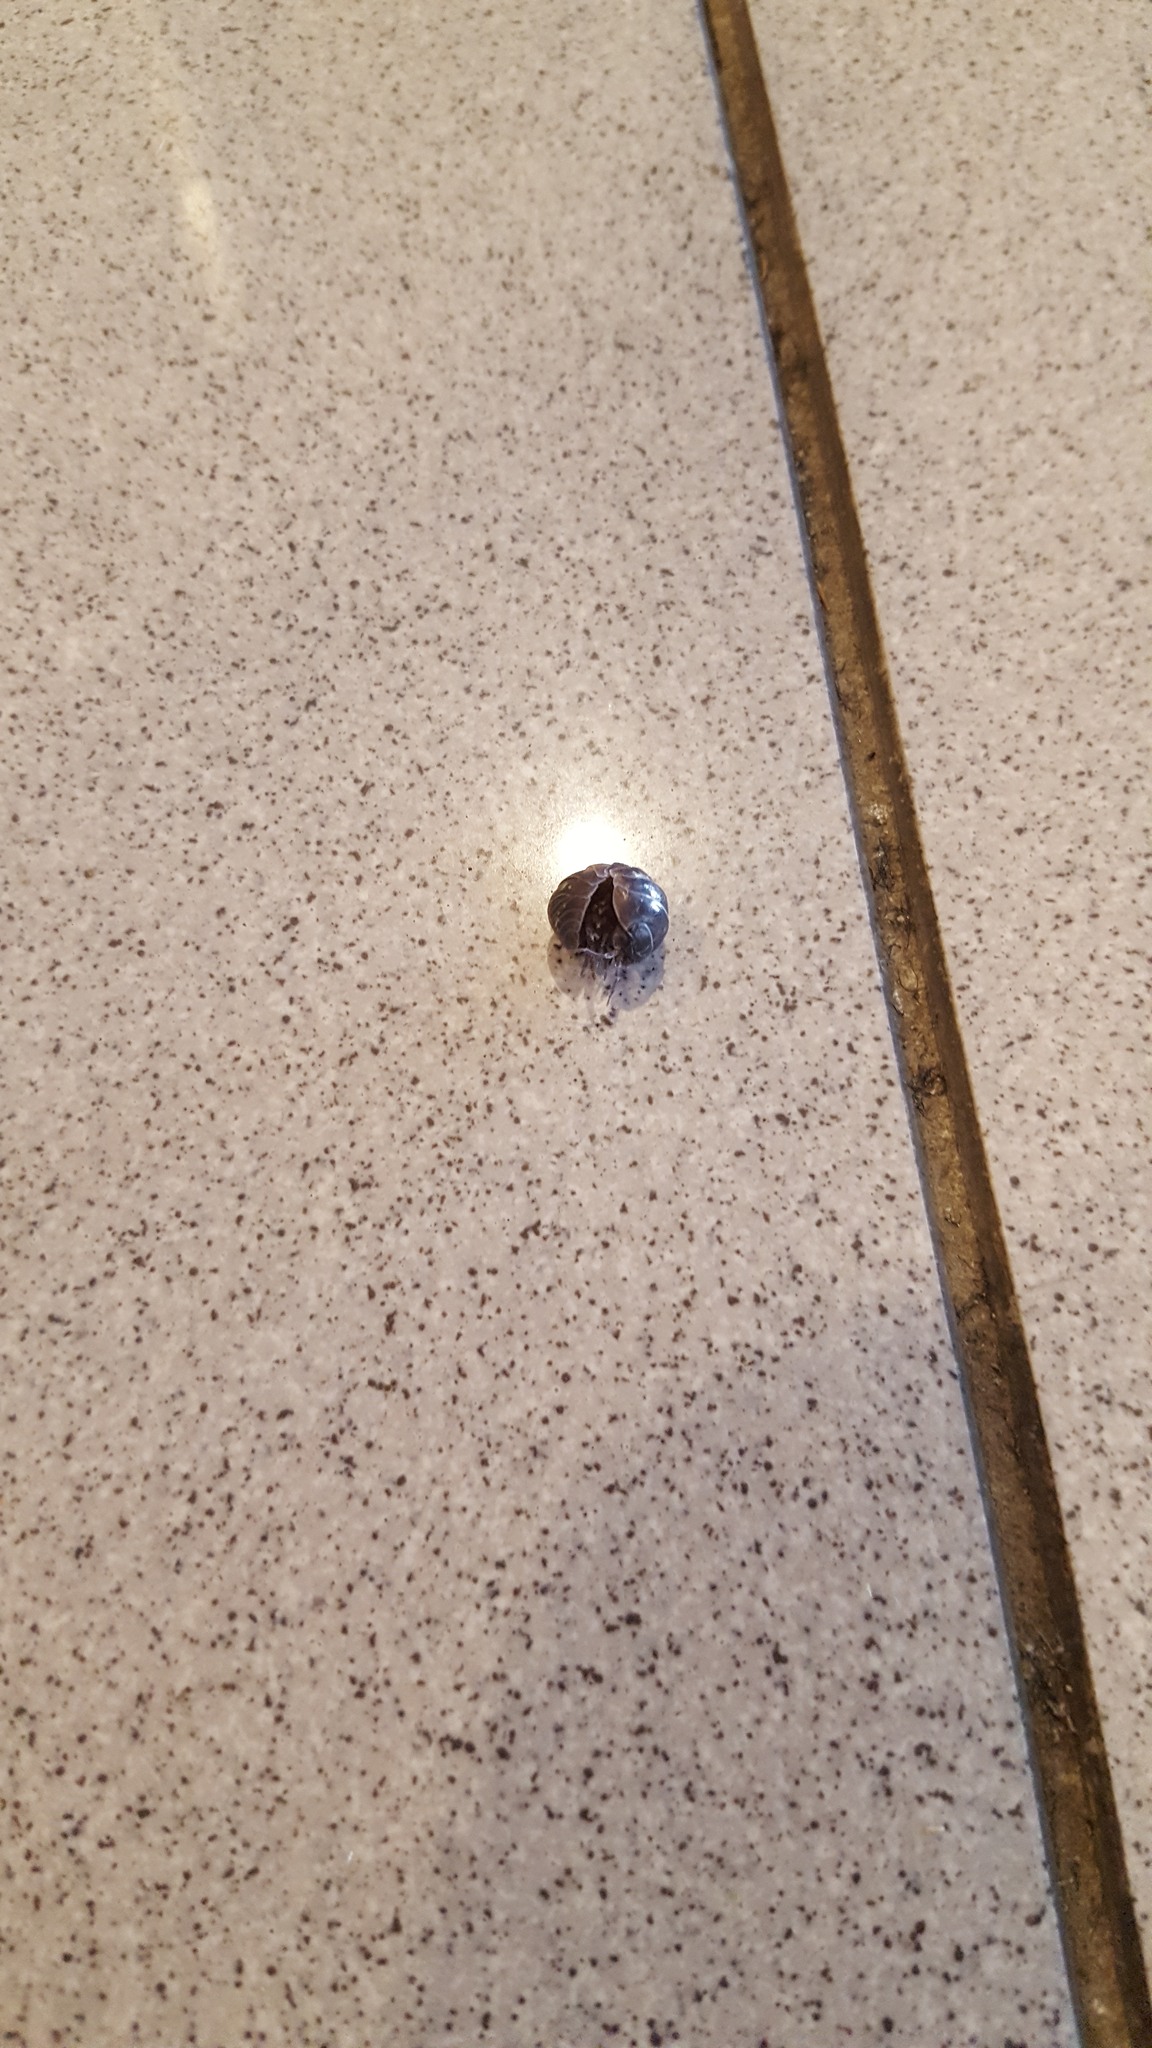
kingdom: Animalia
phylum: Arthropoda
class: Malacostraca
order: Isopoda
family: Armadillidiidae
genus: Armadillidium
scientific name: Armadillidium vulgare
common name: Common pill woodlouse
